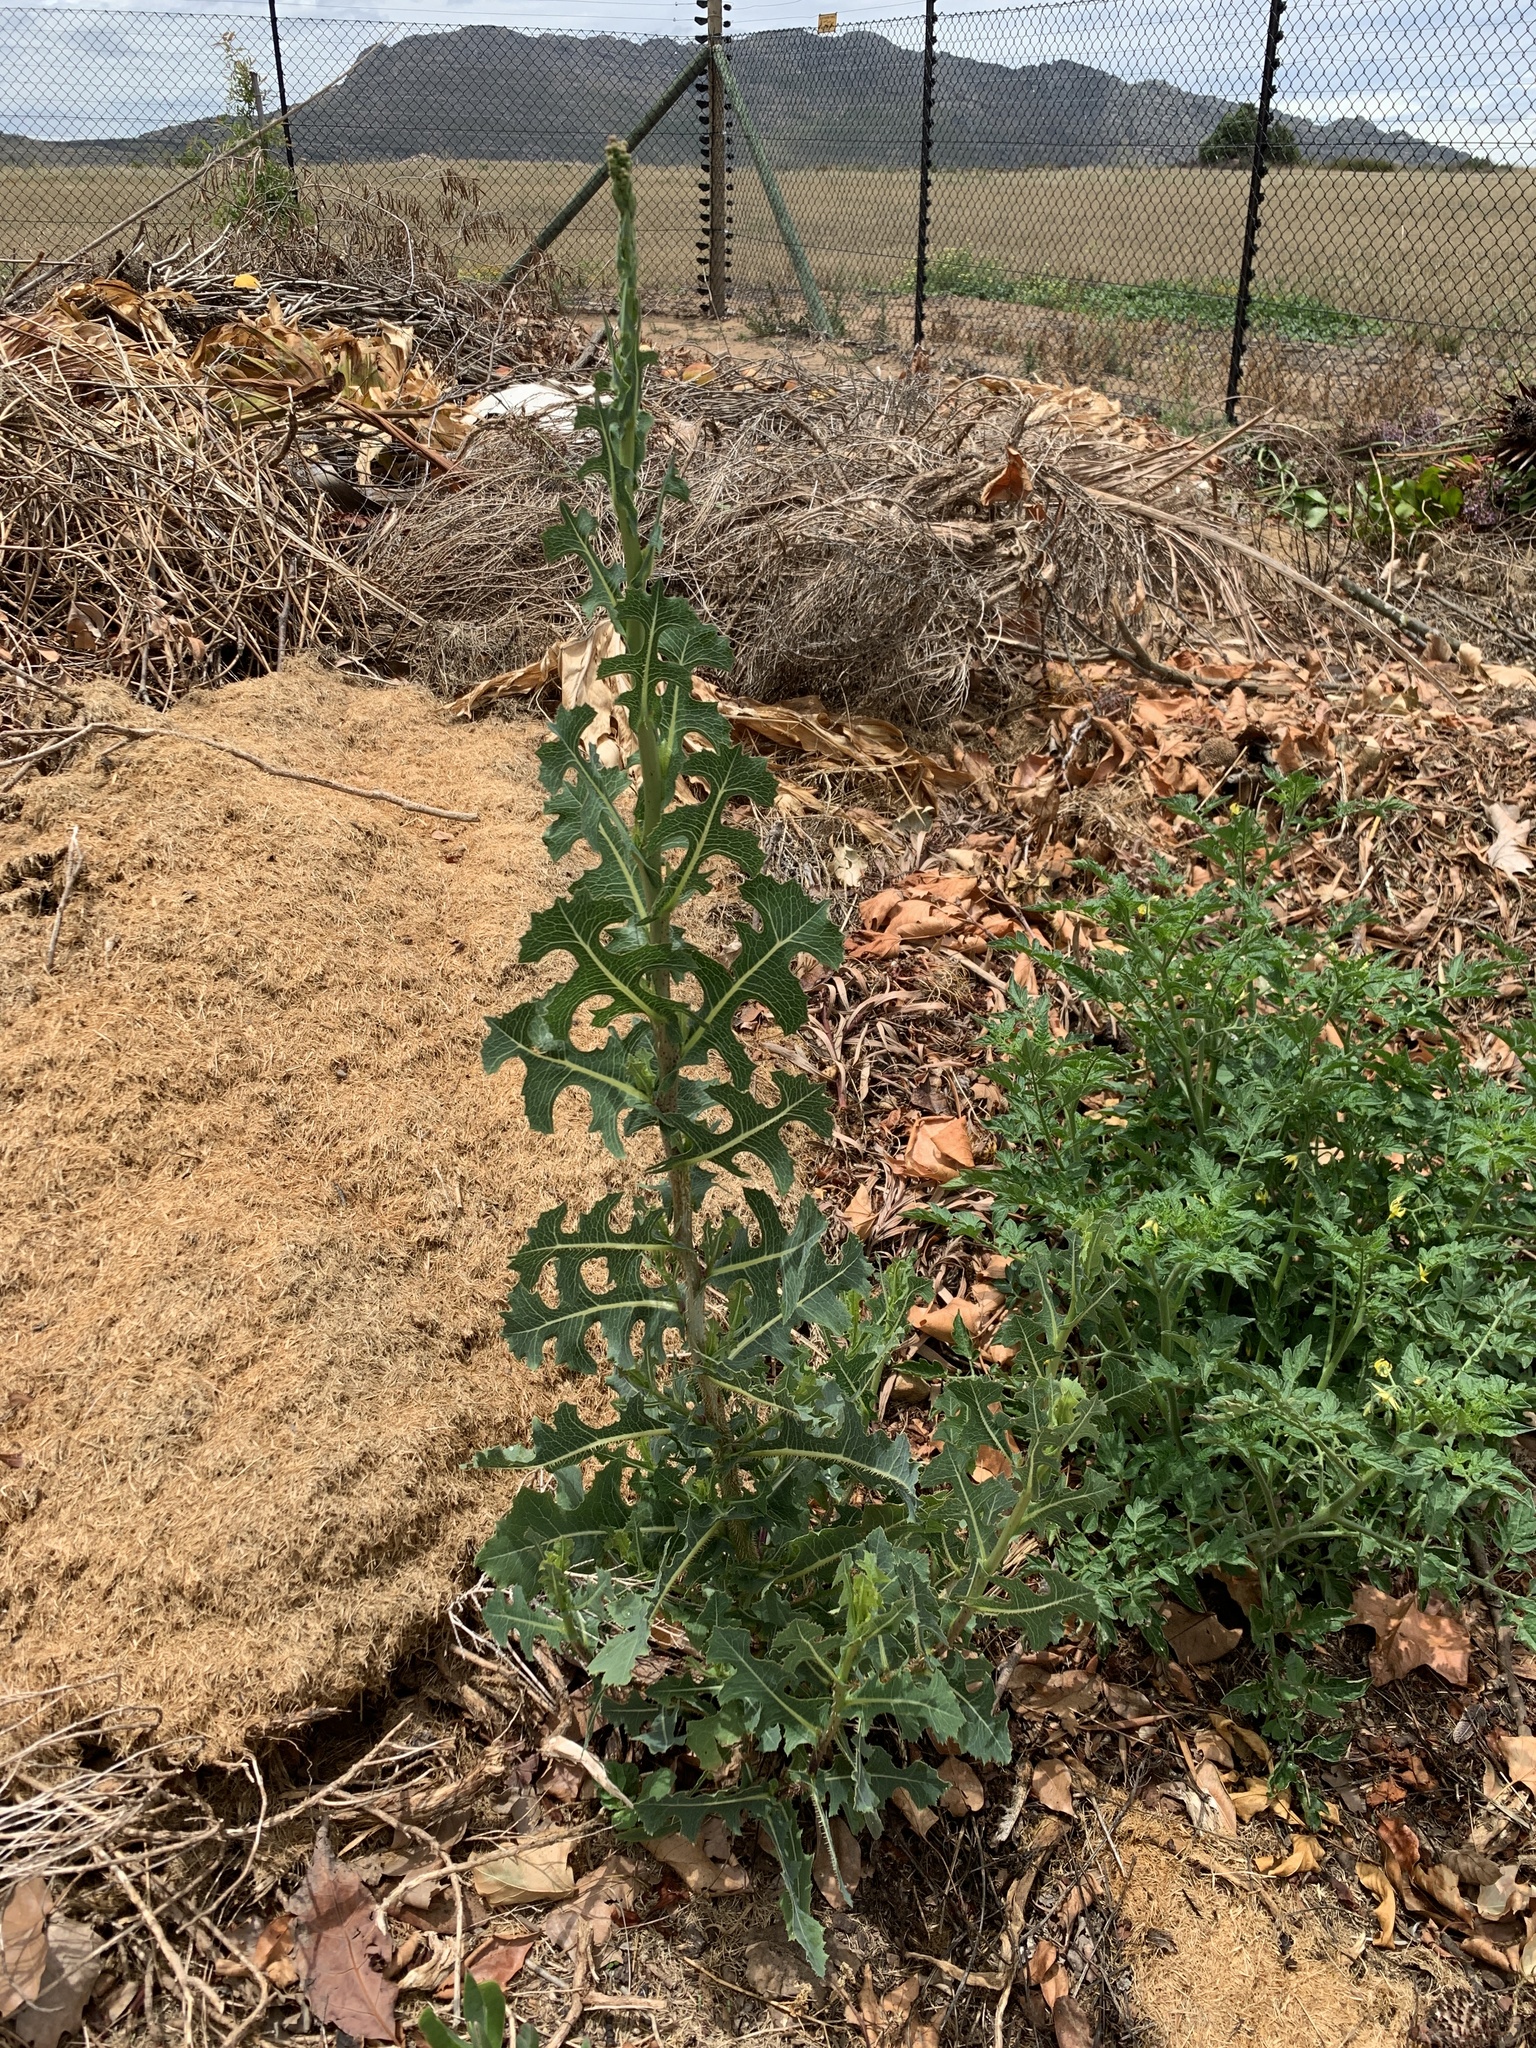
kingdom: Plantae
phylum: Tracheophyta
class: Magnoliopsida
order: Asterales
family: Asteraceae
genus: Lactuca
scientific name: Lactuca serriola
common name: Prickly lettuce
